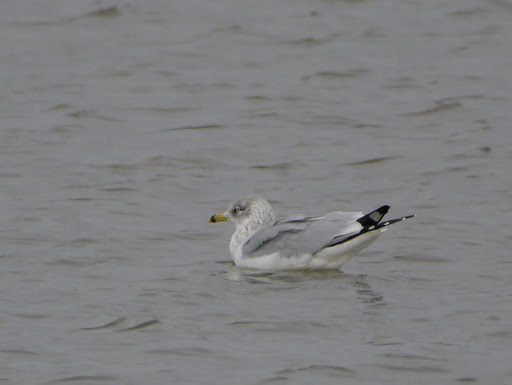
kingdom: Animalia
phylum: Chordata
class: Aves
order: Charadriiformes
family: Laridae
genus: Larus
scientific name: Larus delawarensis
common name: Ring-billed gull
